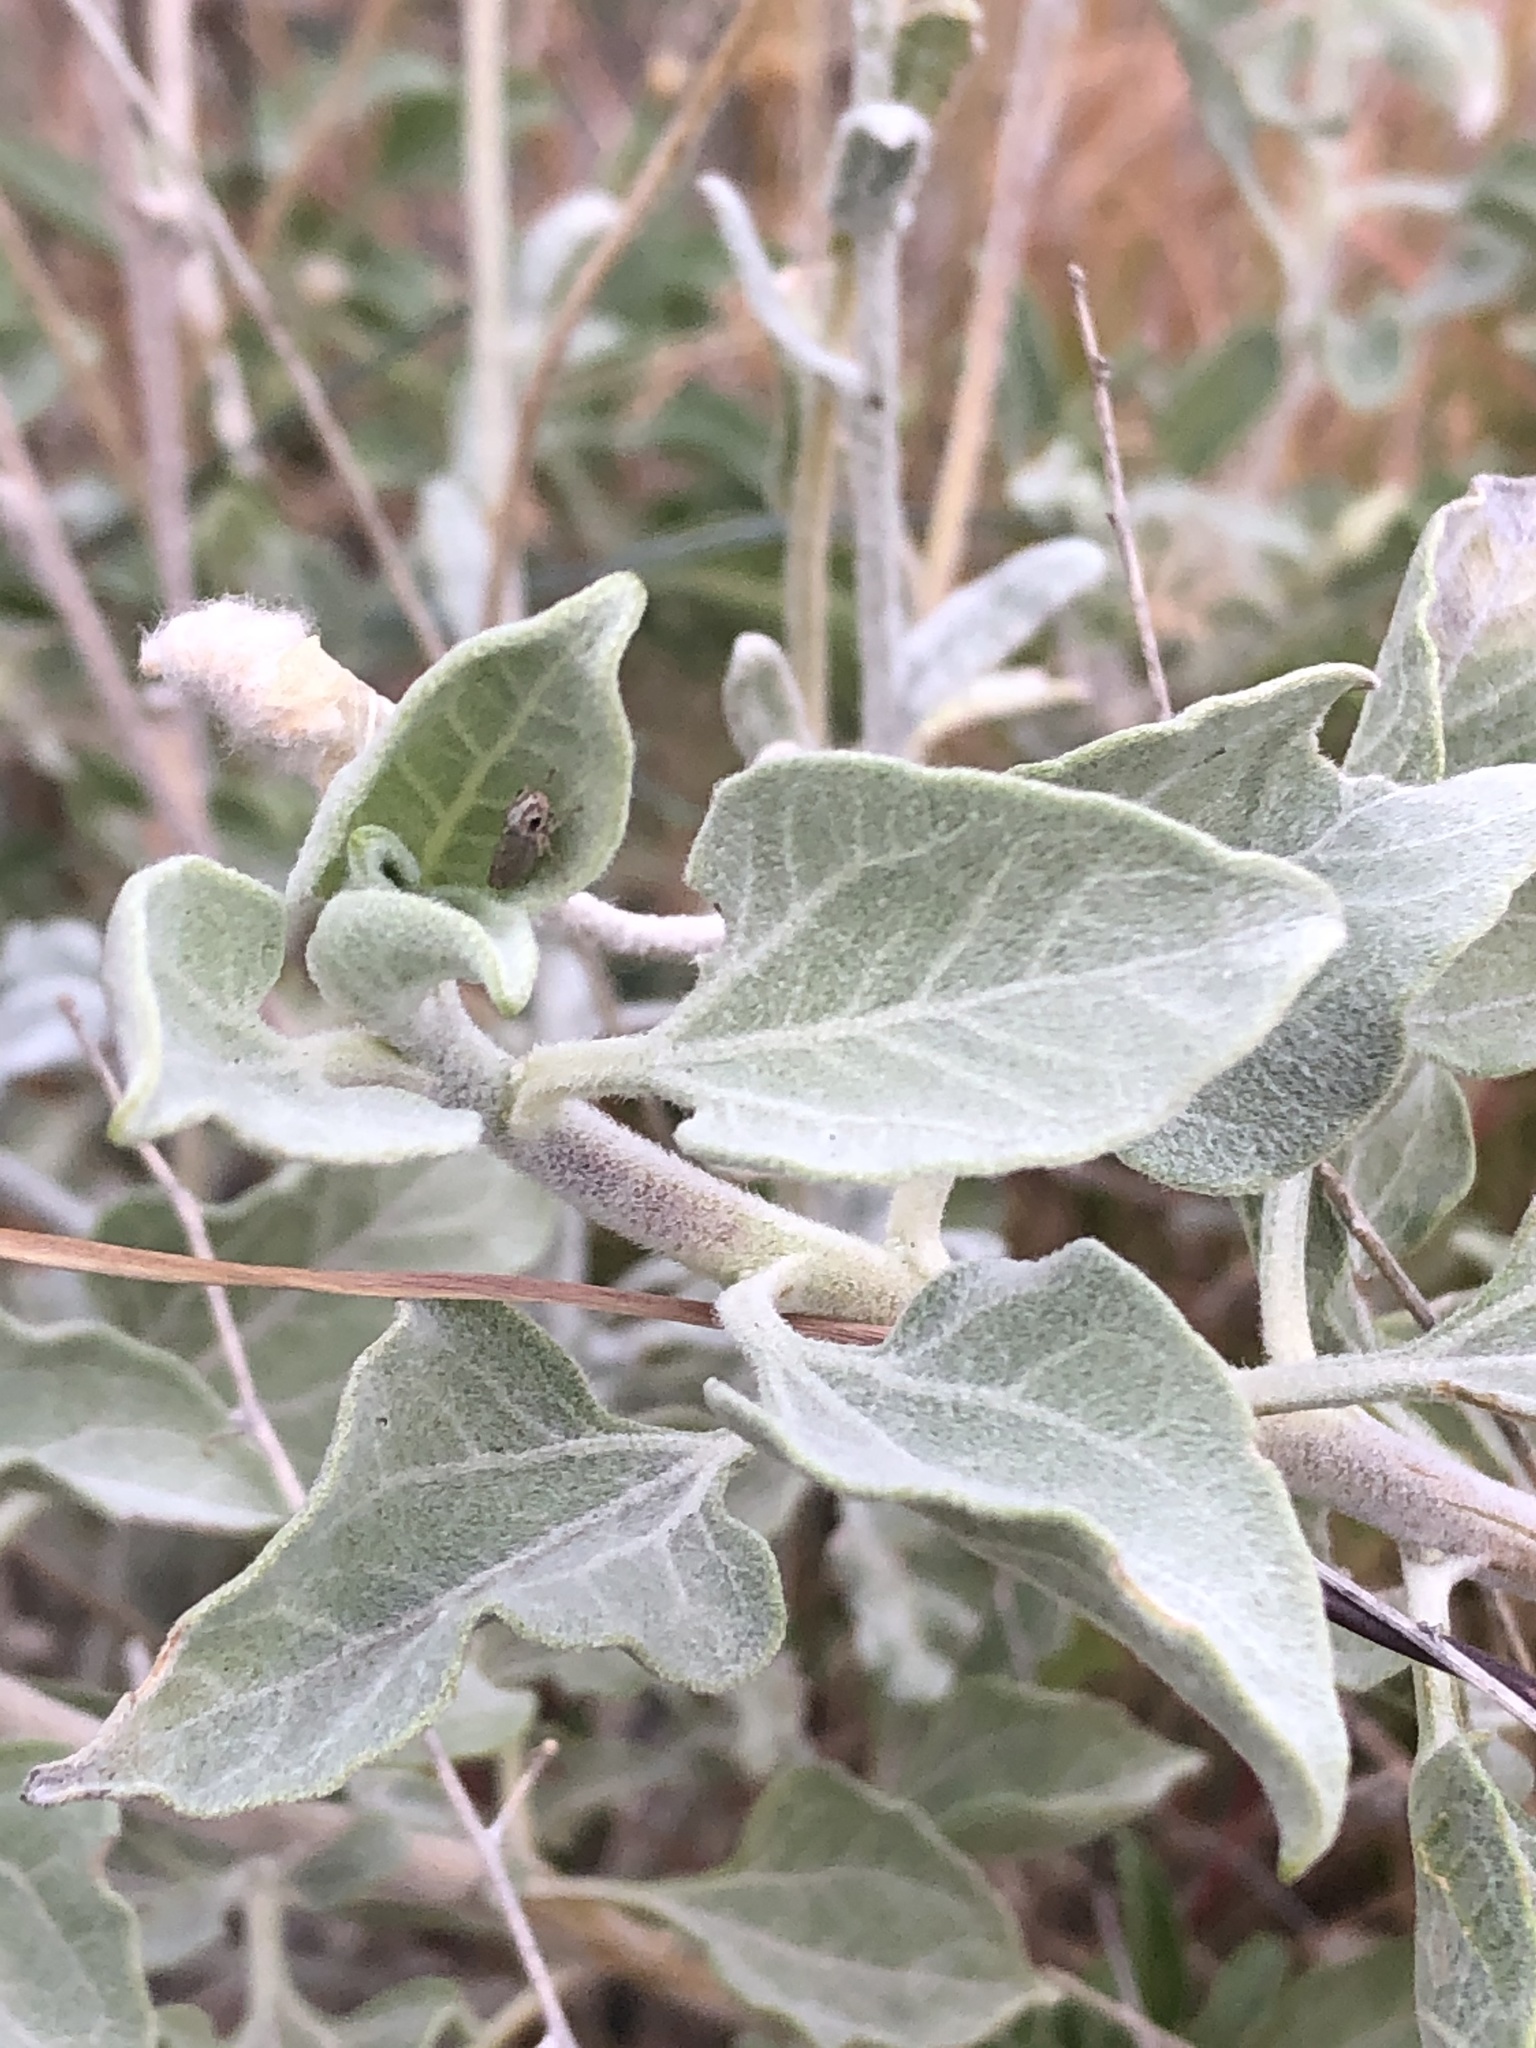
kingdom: Plantae
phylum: Tracheophyta
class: Magnoliopsida
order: Asterales
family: Asteraceae
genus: Encelia
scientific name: Encelia farinosa
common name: Brittlebush
